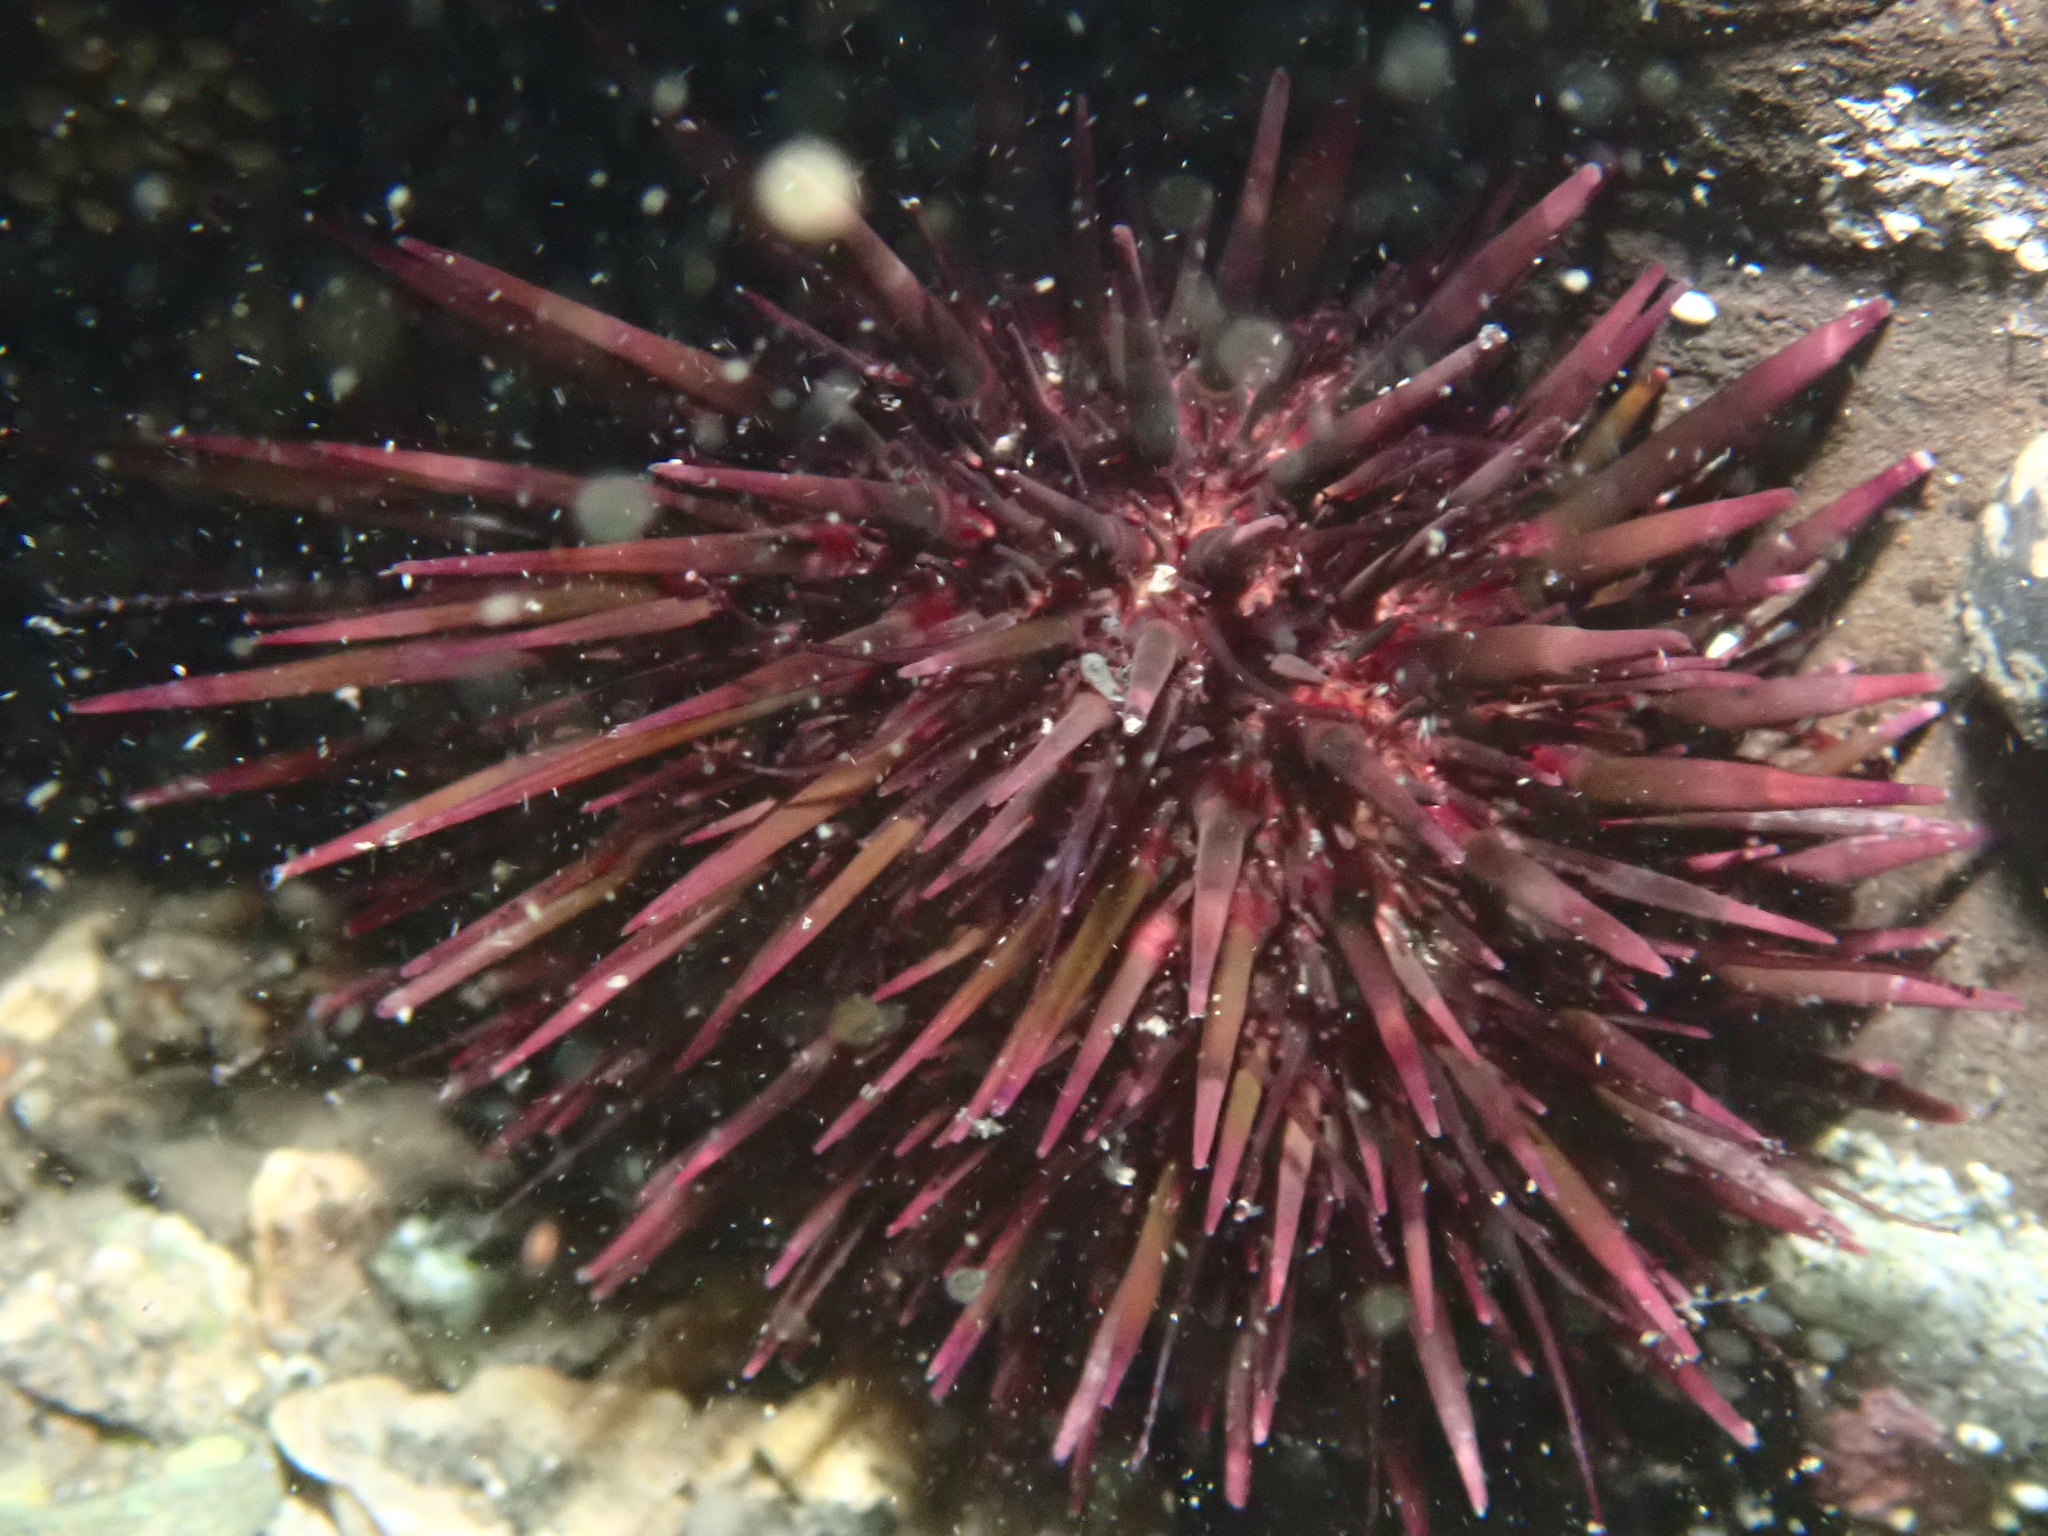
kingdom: Animalia
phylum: Echinodermata
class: Echinoidea
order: Camarodonta
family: Echinometridae
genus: Heliocidaris
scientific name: Heliocidaris crassispina
